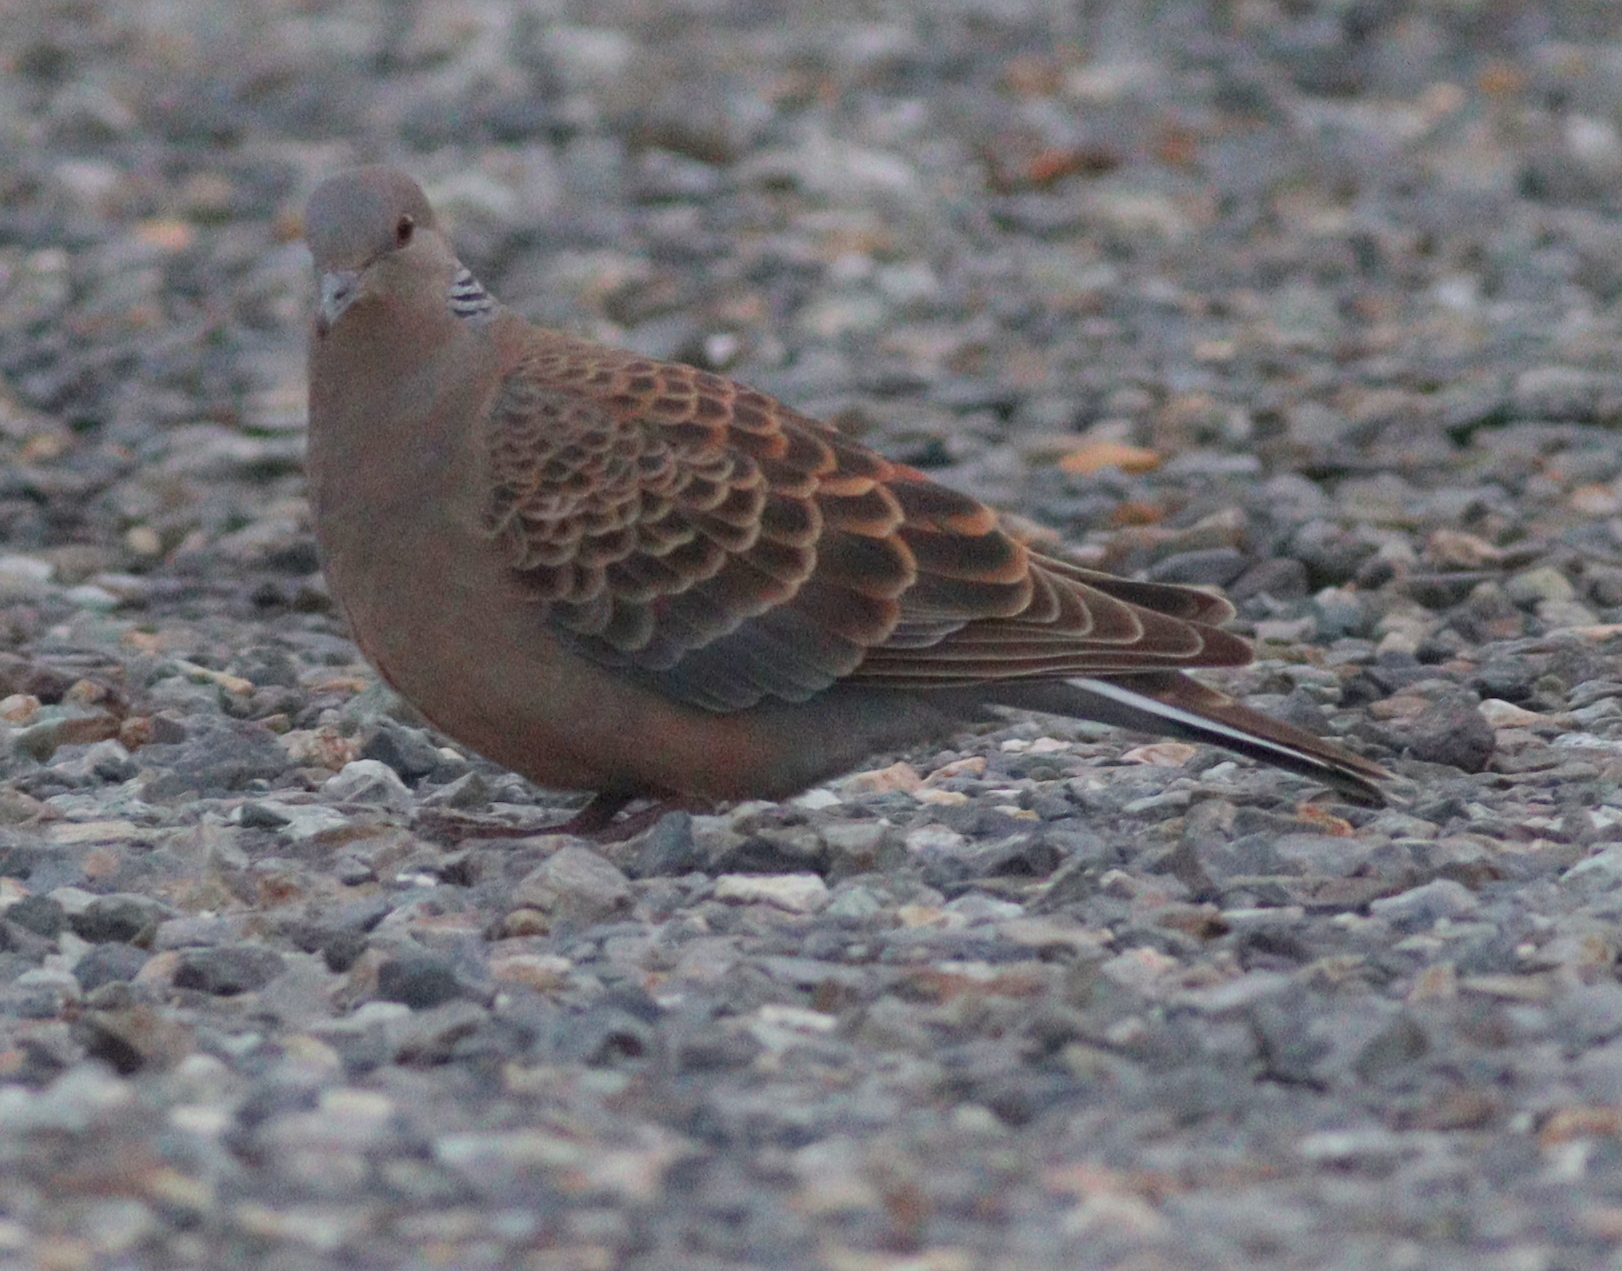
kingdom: Animalia
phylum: Chordata
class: Aves
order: Columbiformes
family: Columbidae
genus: Streptopelia
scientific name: Streptopelia orientalis
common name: Oriental turtle dove
